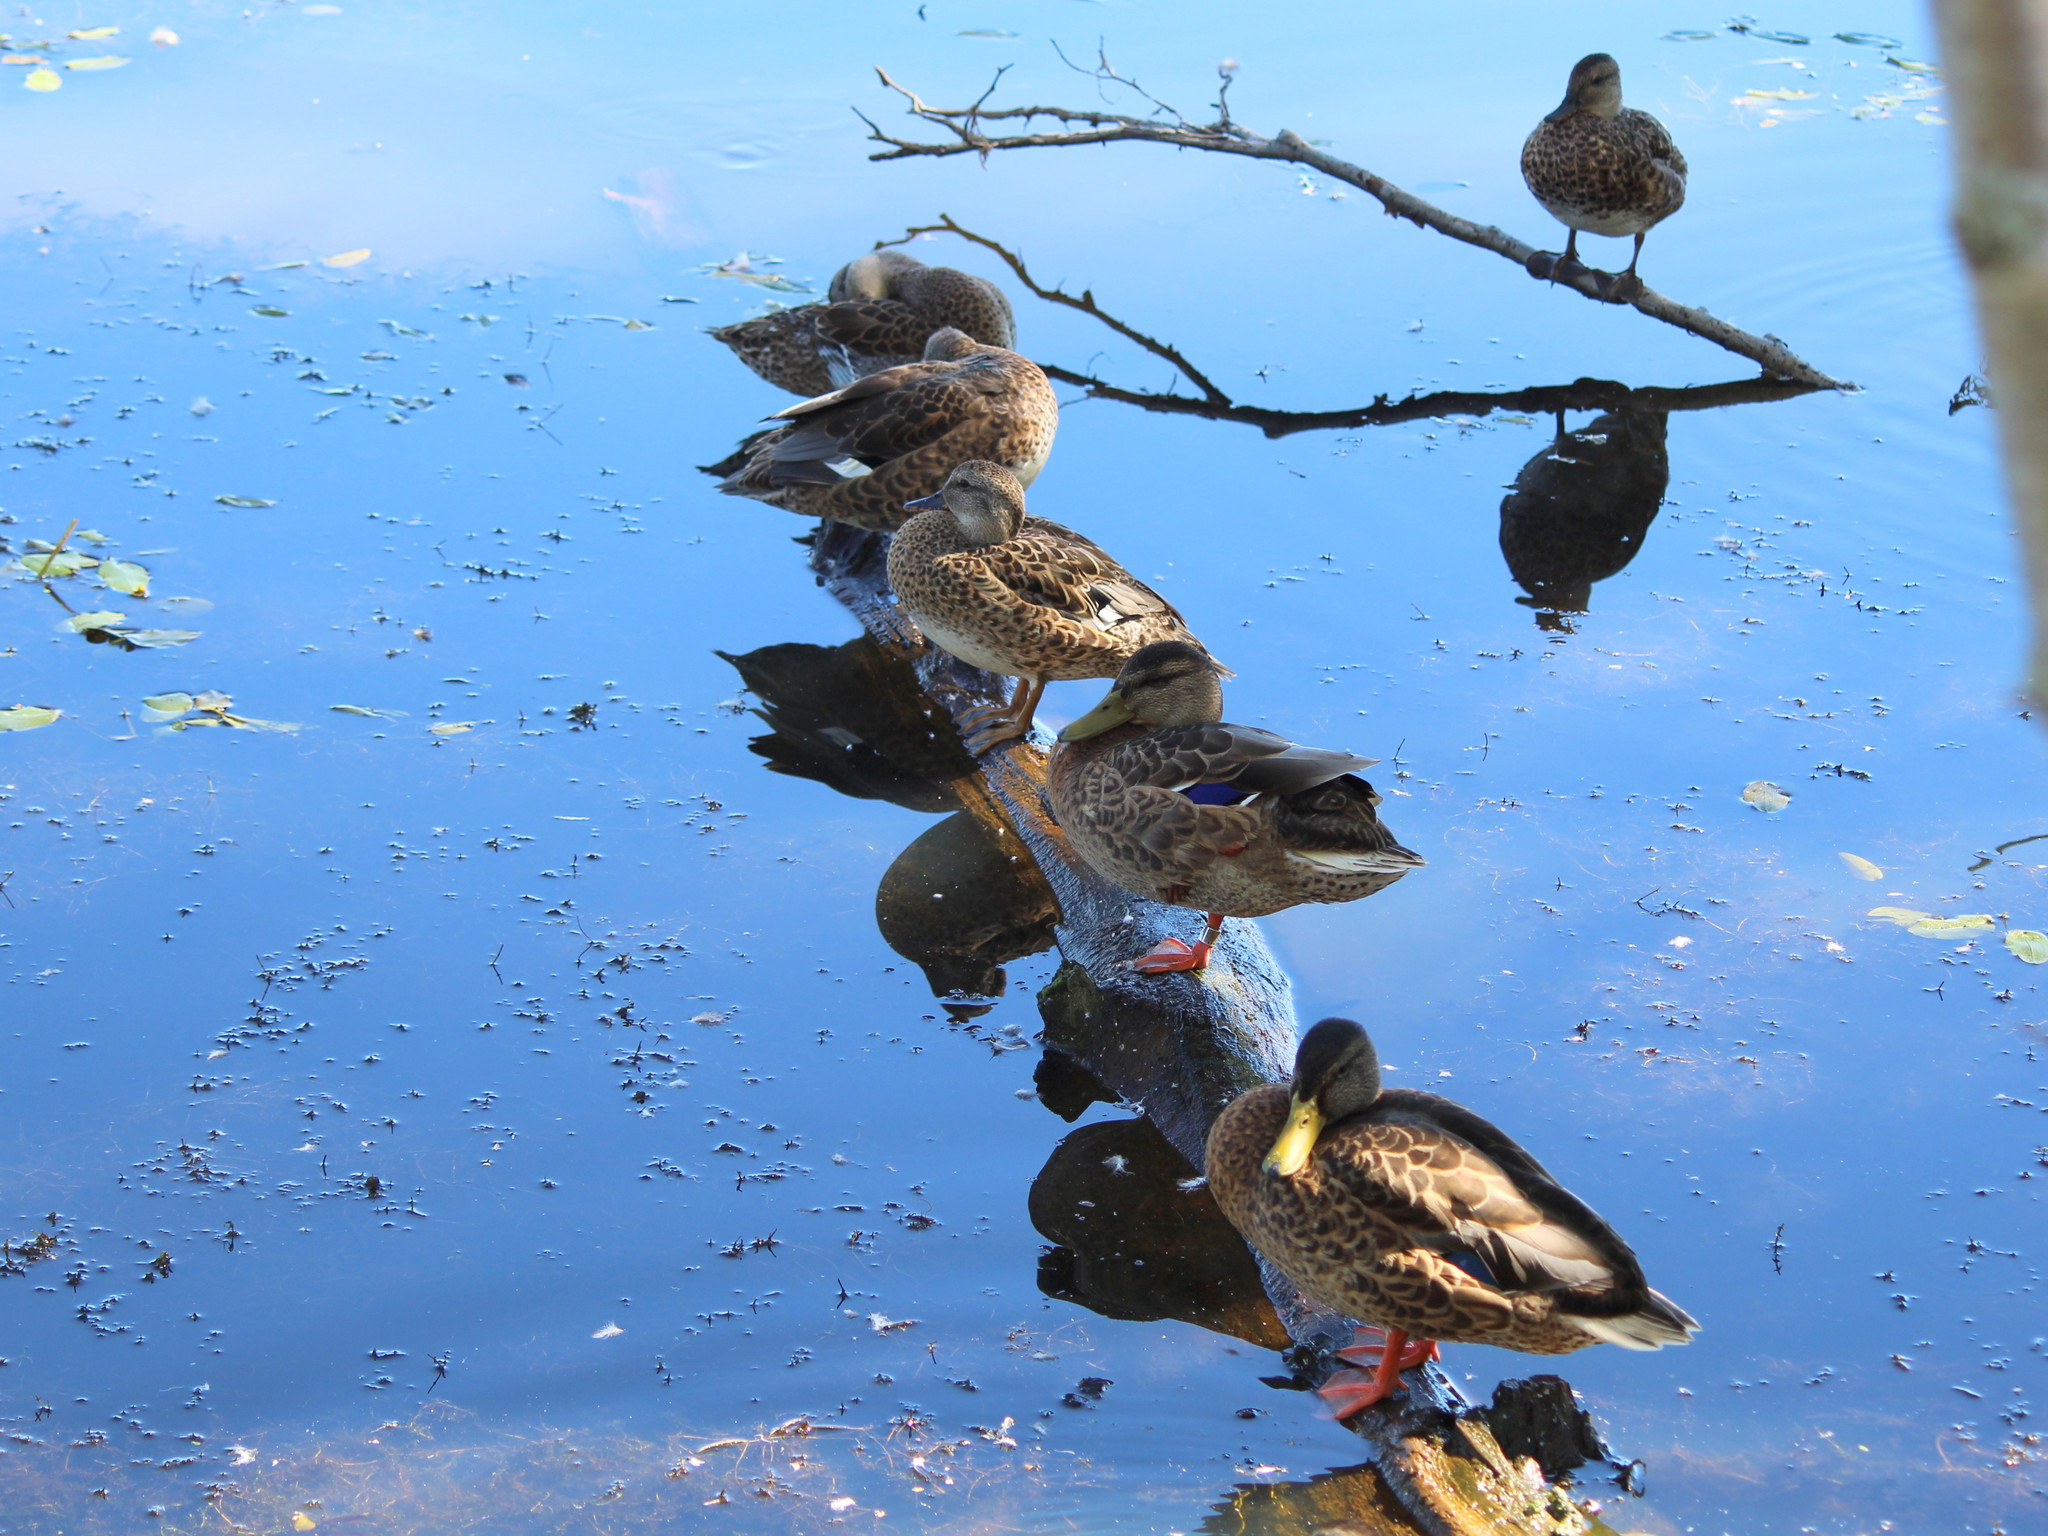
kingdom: Animalia
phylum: Chordata
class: Aves
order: Anseriformes
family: Anatidae
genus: Anas
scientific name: Anas platyrhynchos
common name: Mallard
